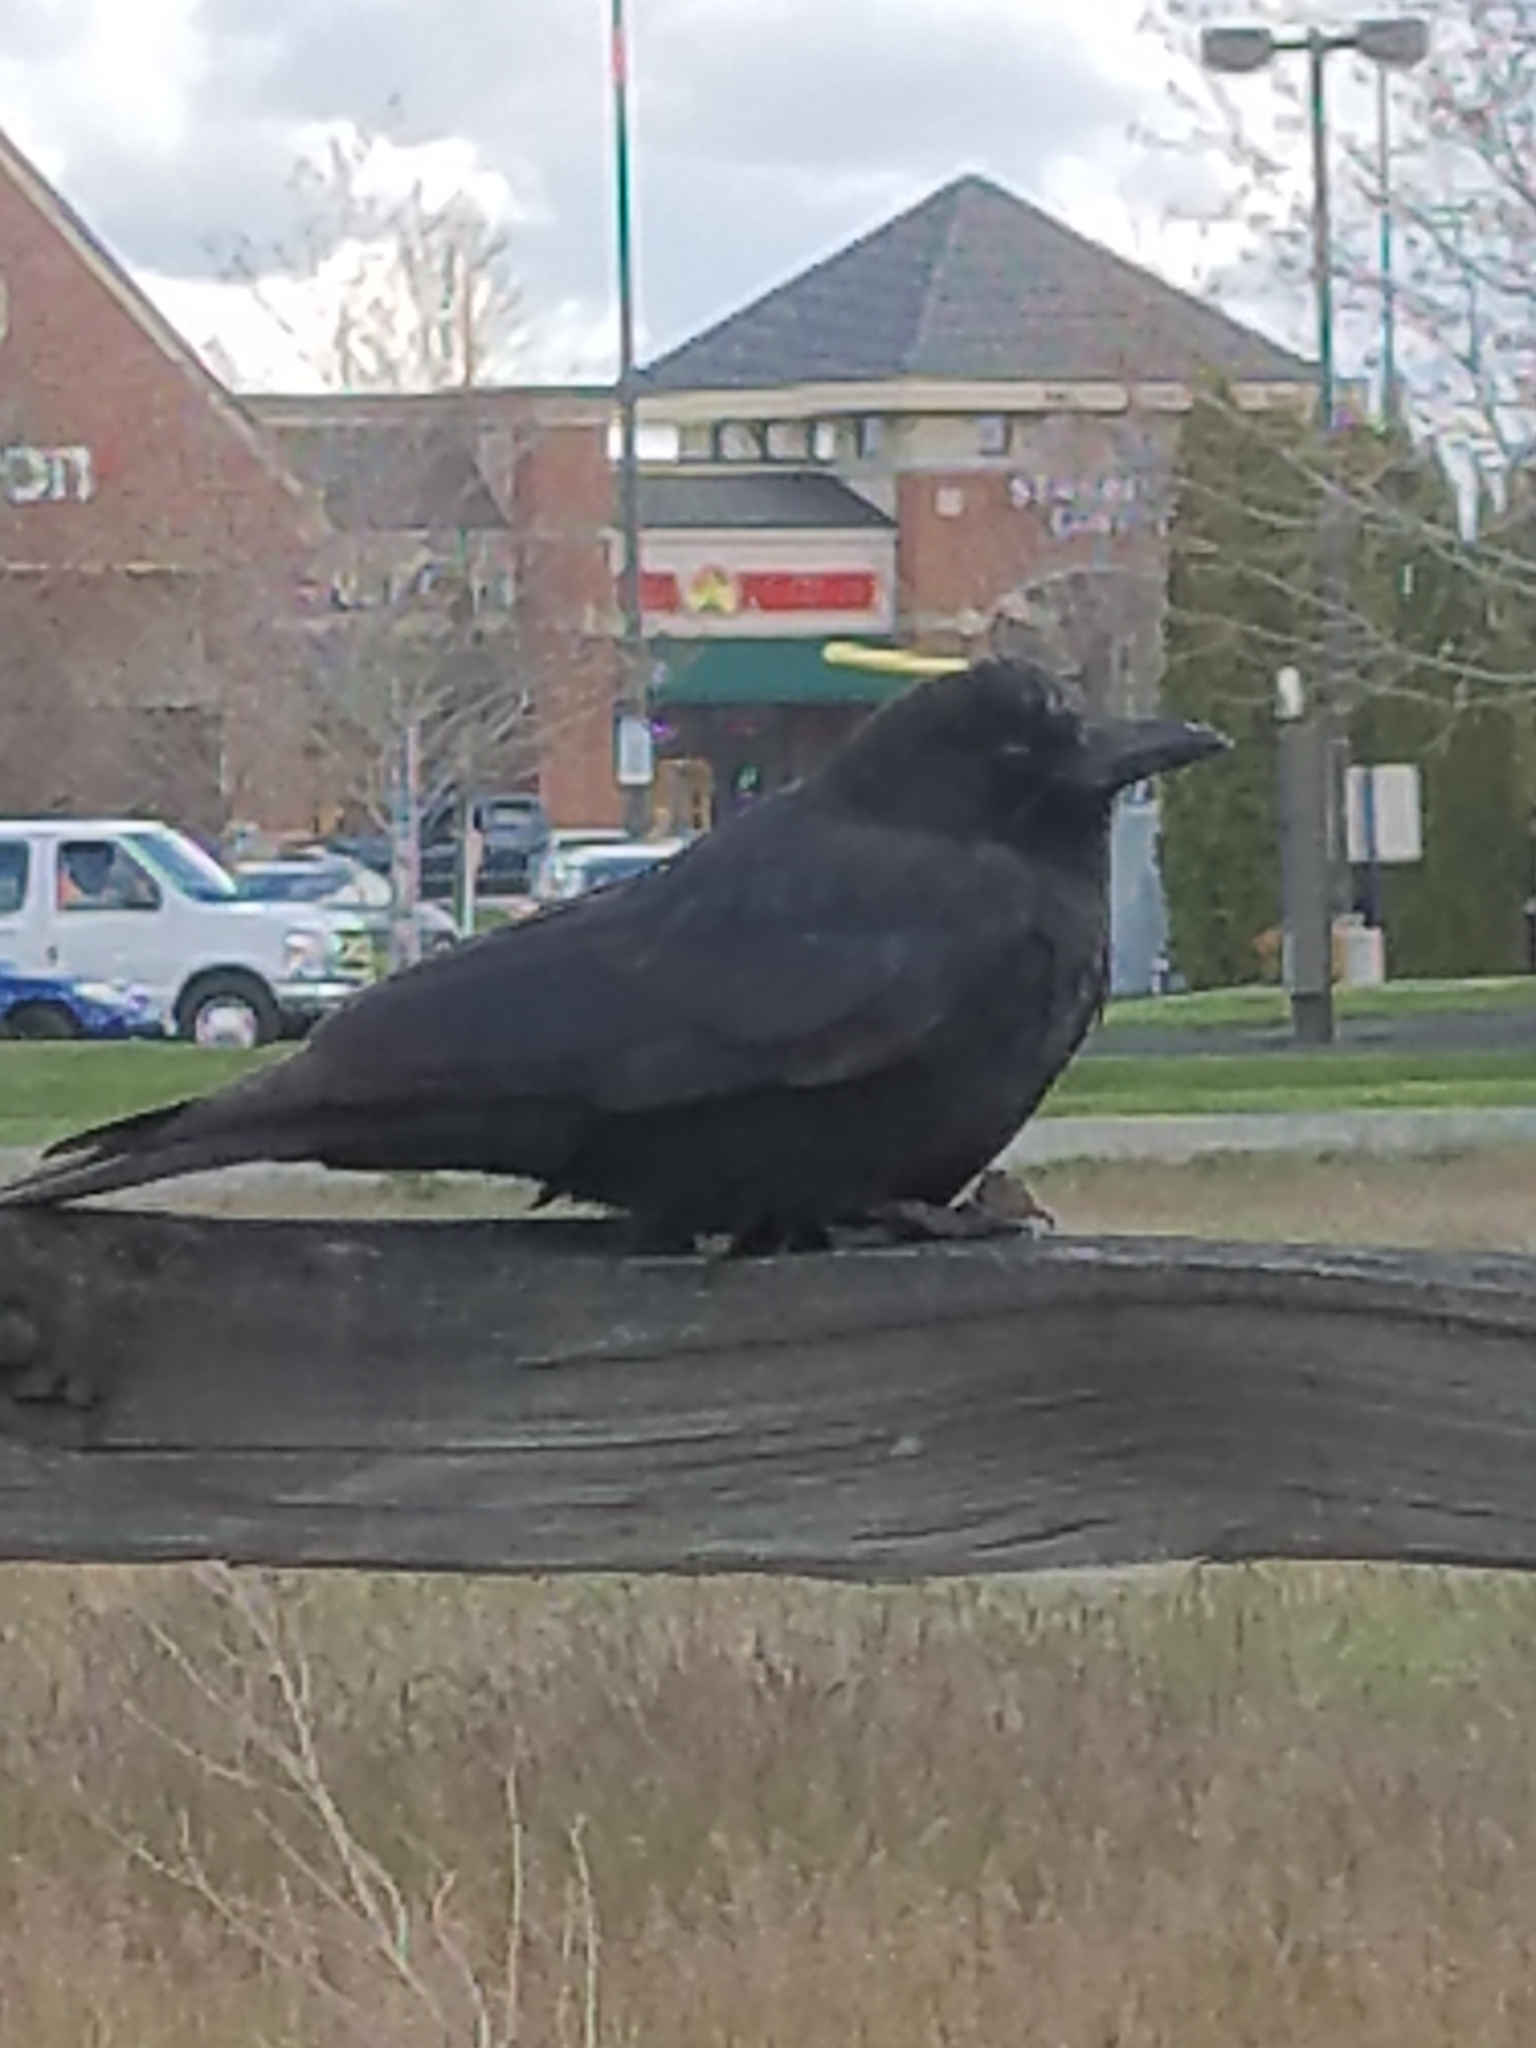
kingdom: Animalia
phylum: Chordata
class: Aves
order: Passeriformes
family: Corvidae
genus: Corvus
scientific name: Corvus brachyrhynchos
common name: American crow
